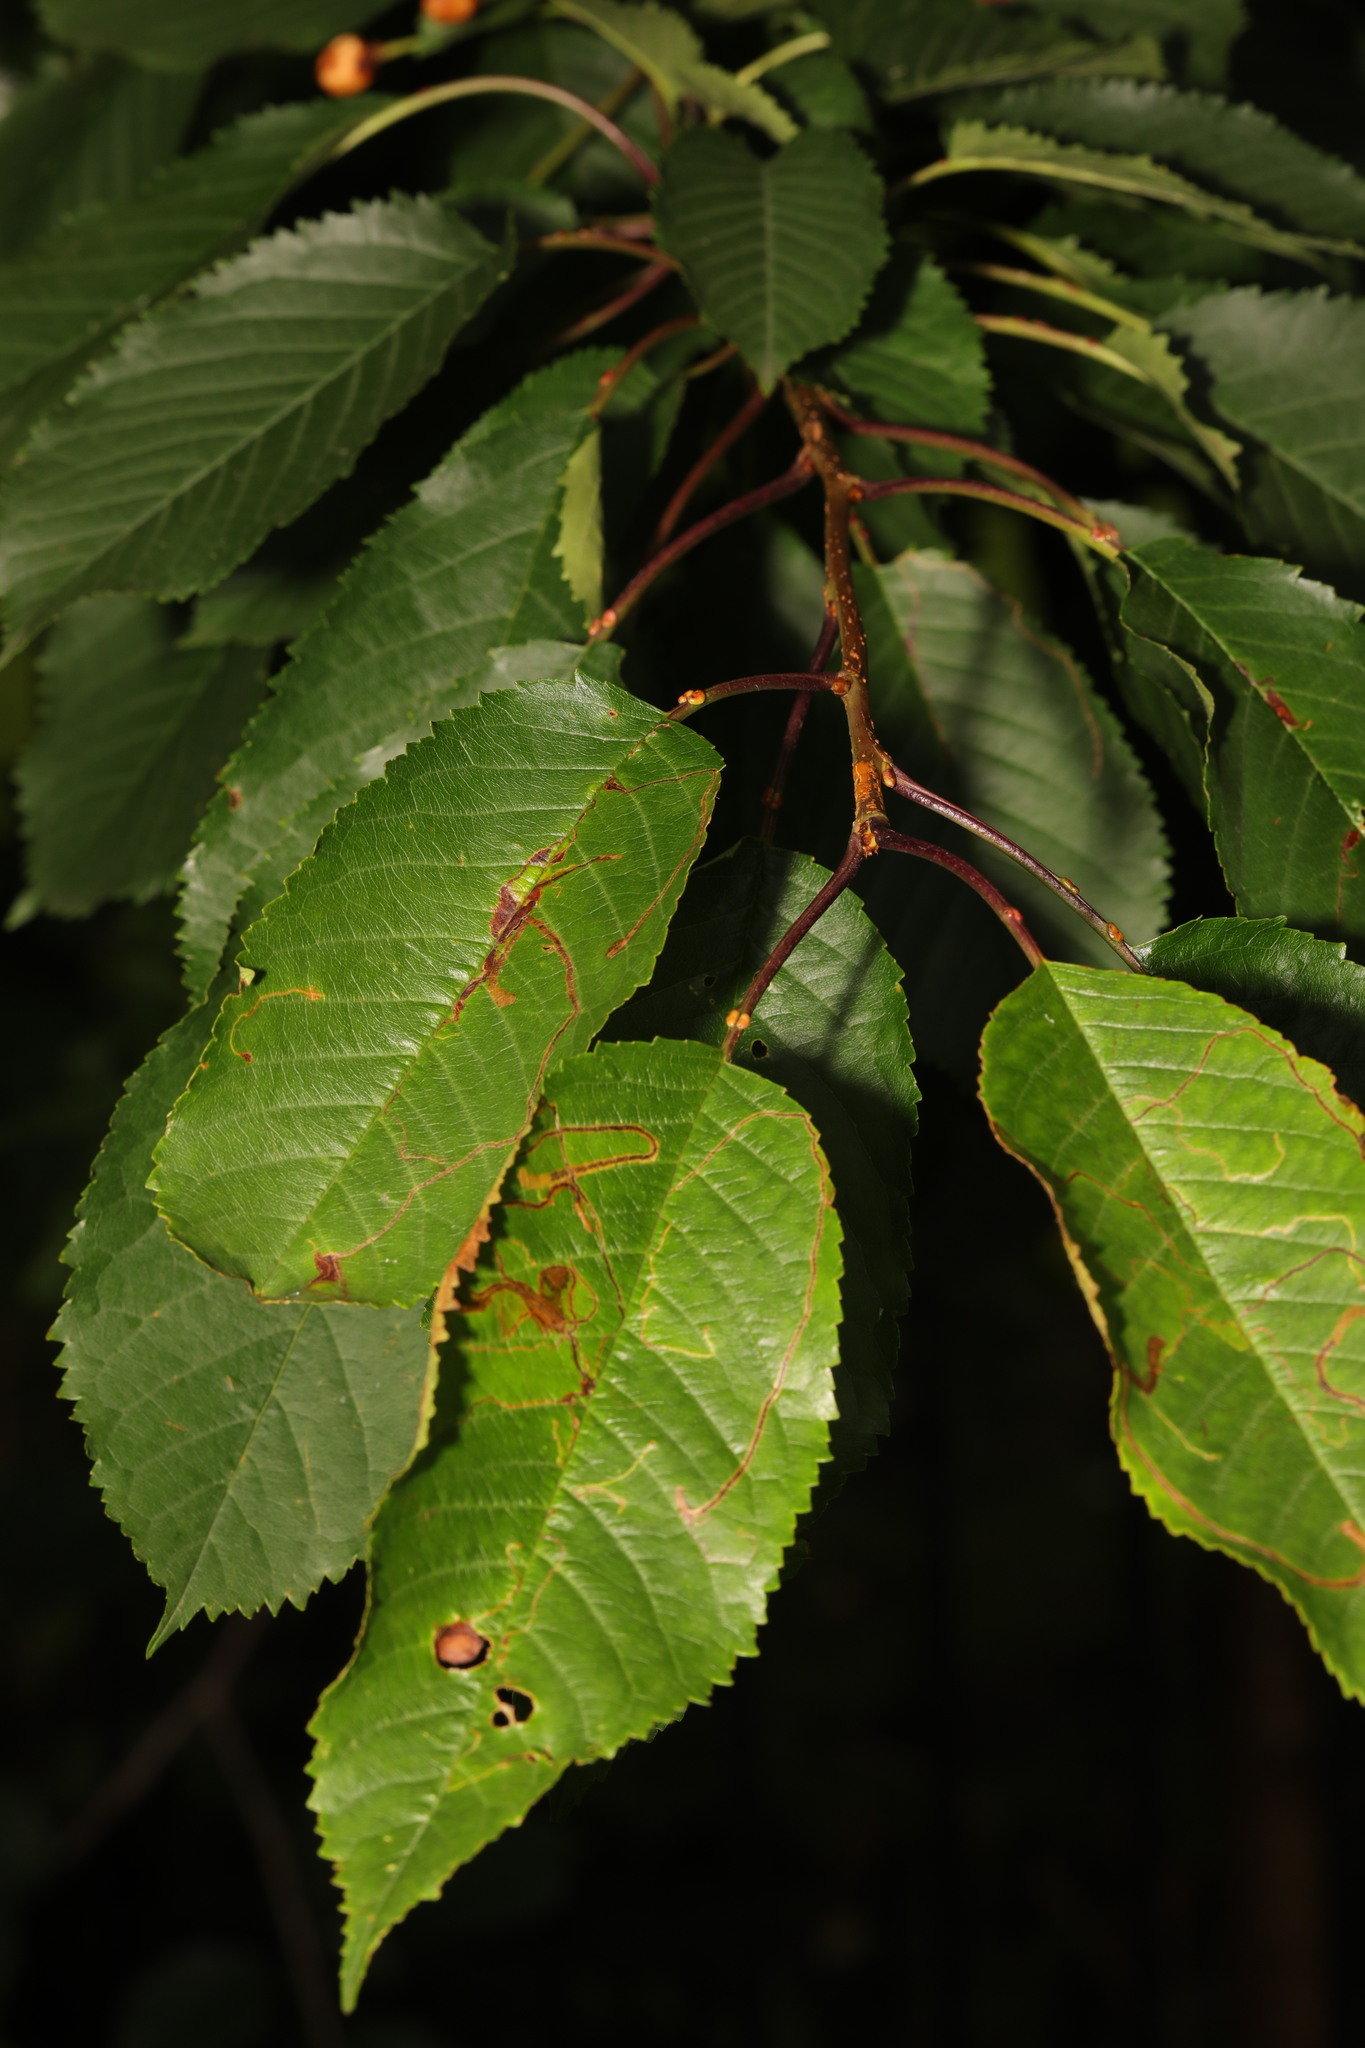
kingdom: Plantae
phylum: Tracheophyta
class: Magnoliopsida
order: Rosales
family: Rosaceae
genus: Prunus
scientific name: Prunus avium
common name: Sweet cherry
